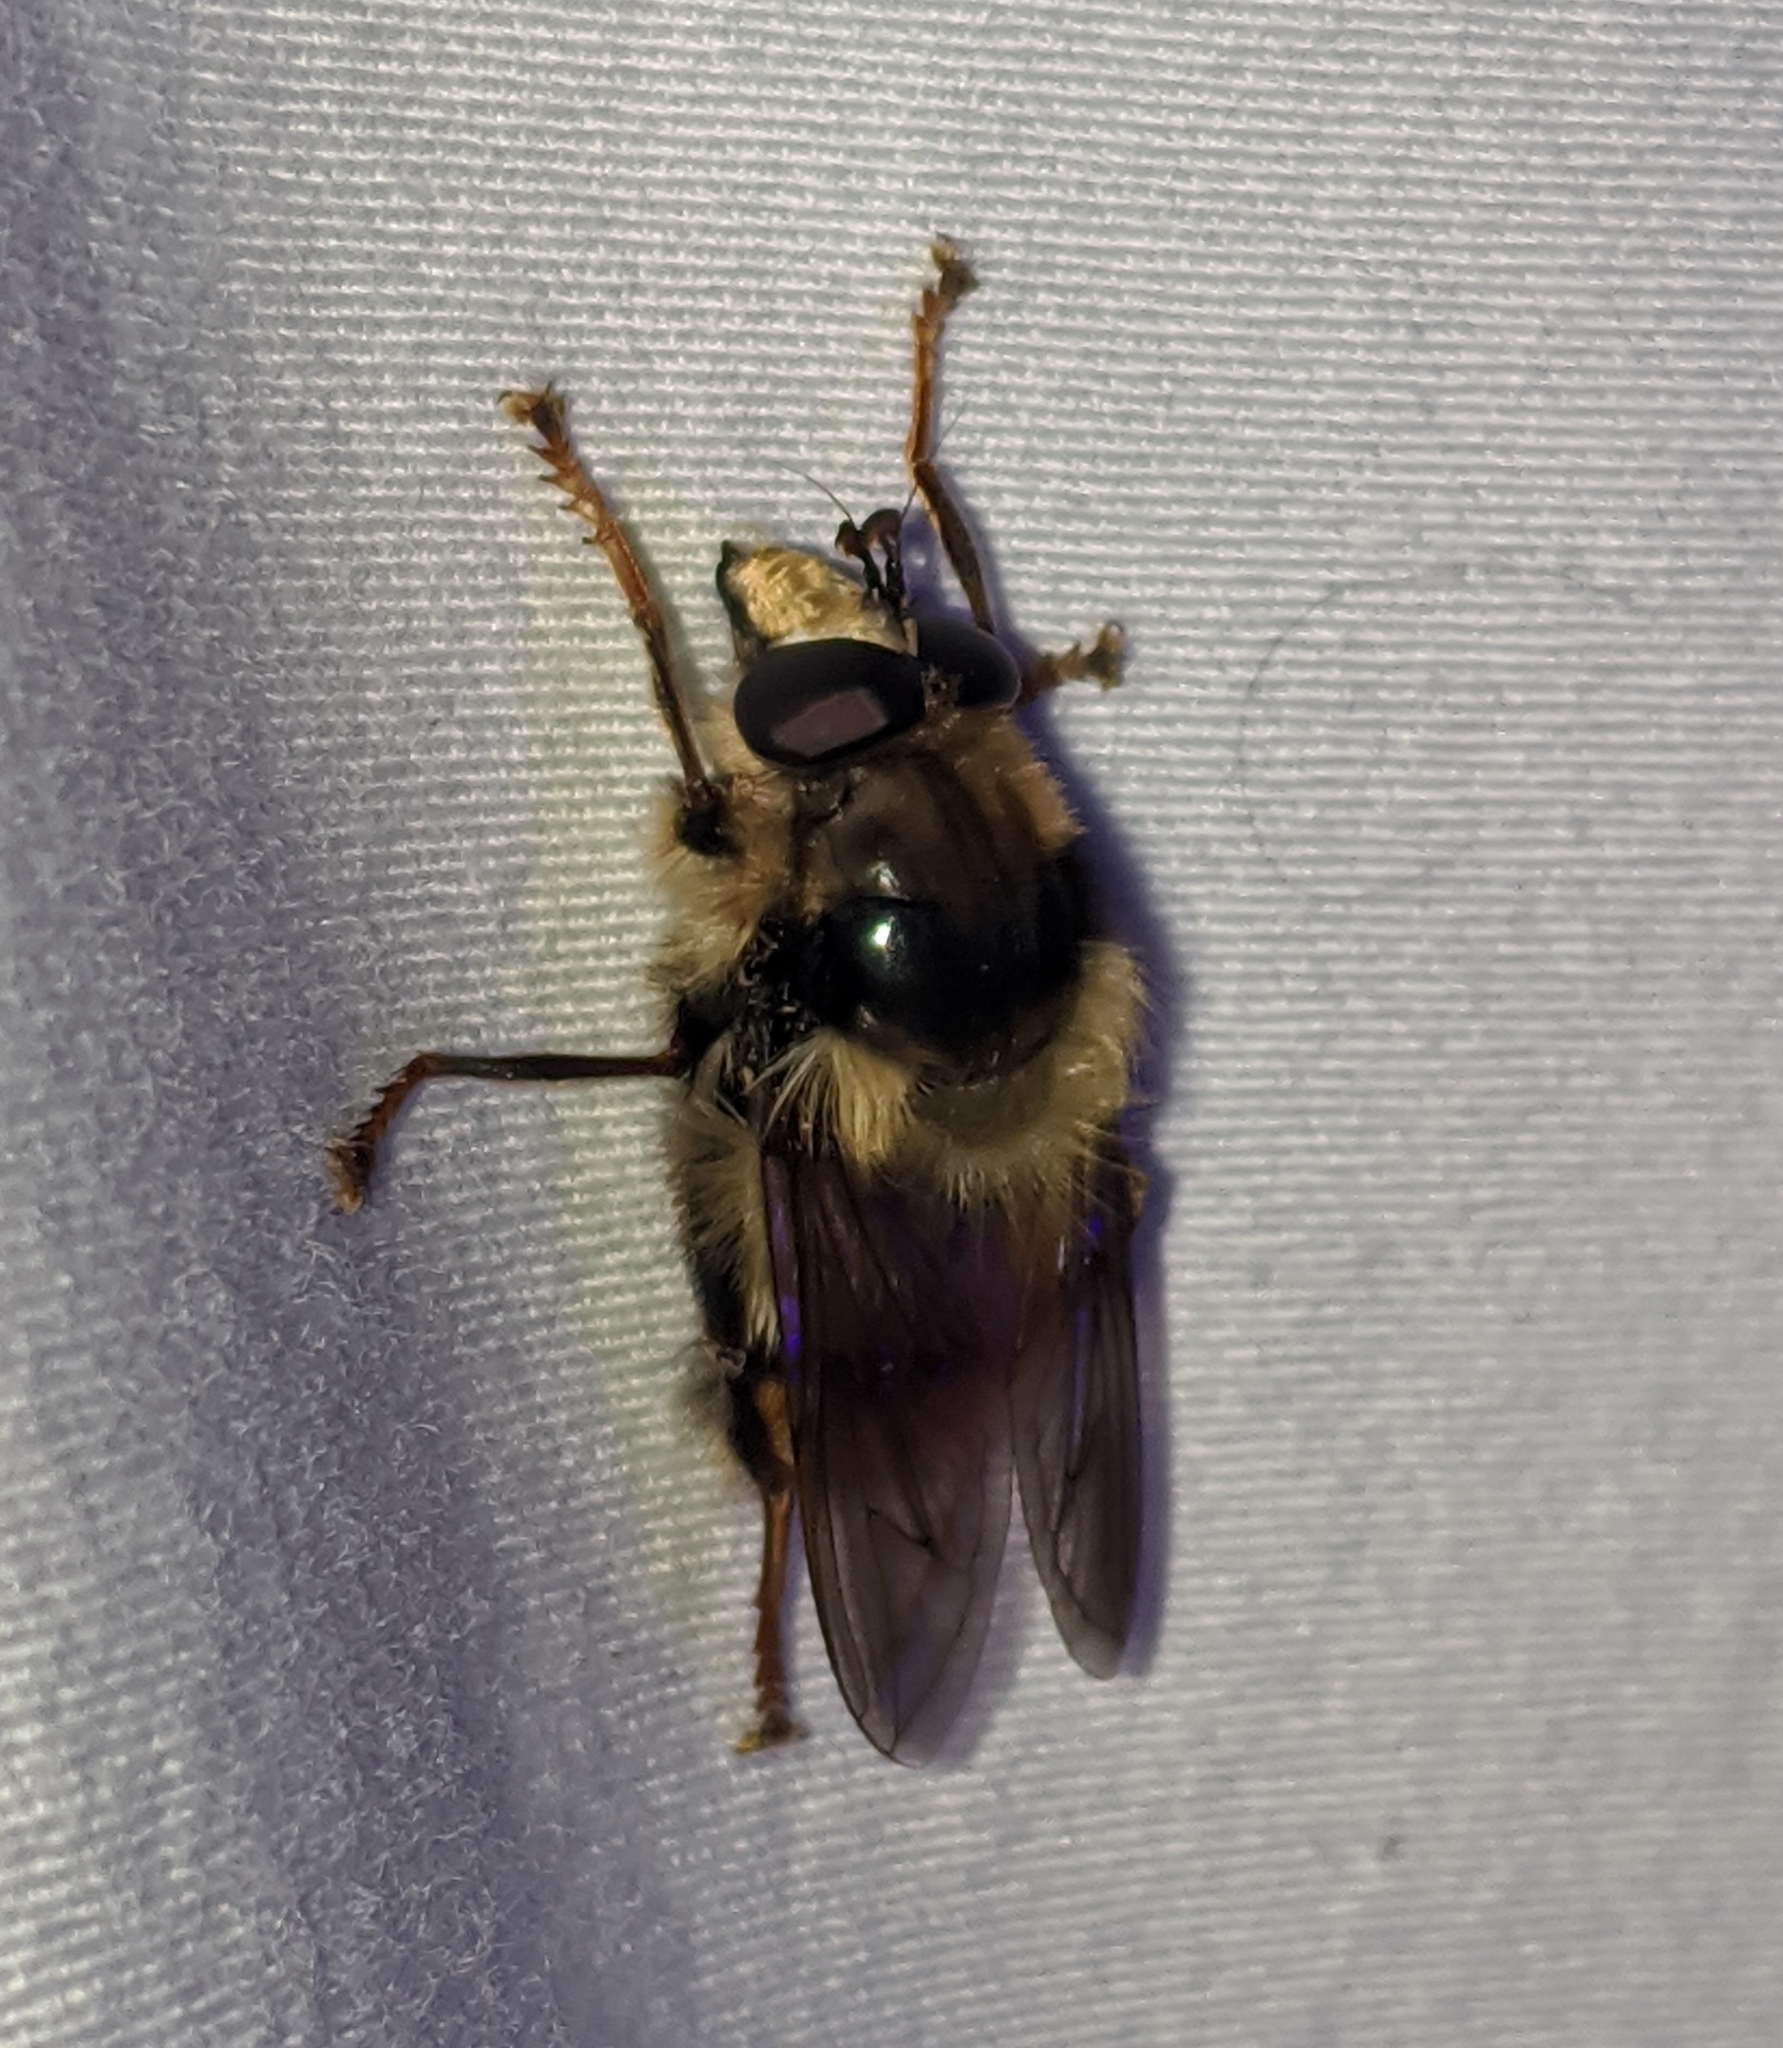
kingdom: Animalia
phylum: Arthropoda
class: Insecta
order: Diptera
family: Syrphidae
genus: Criorhina
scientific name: Criorhina bubulcus
